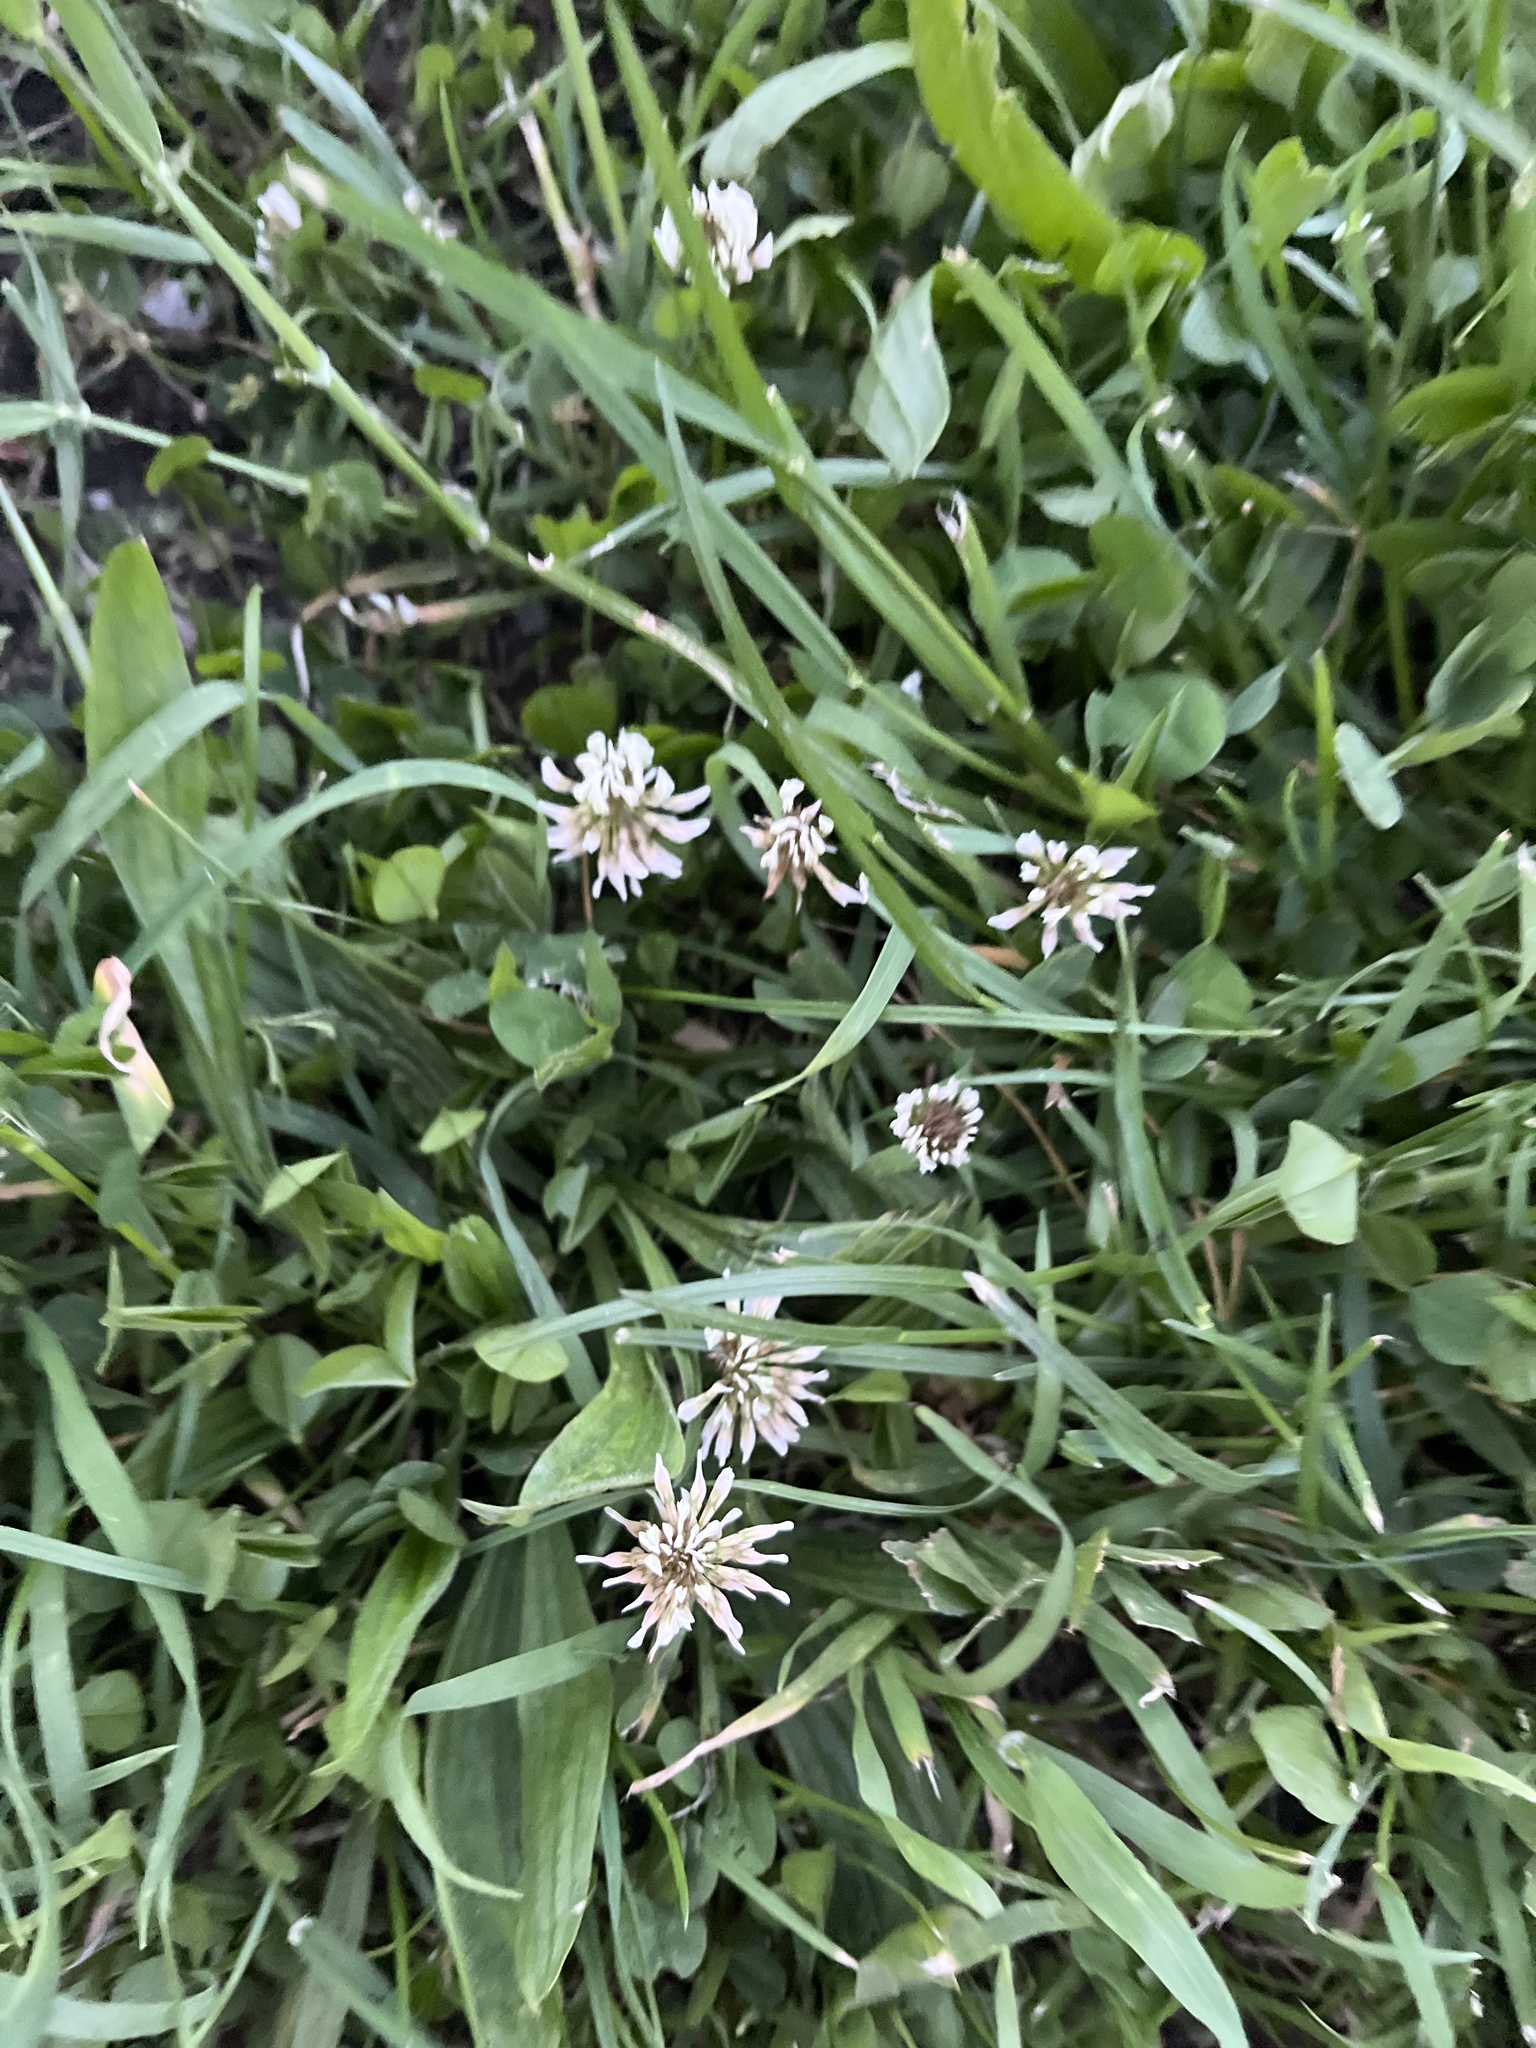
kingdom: Plantae
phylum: Tracheophyta
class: Magnoliopsida
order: Fabales
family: Fabaceae
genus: Trifolium
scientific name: Trifolium repens
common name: White clover
